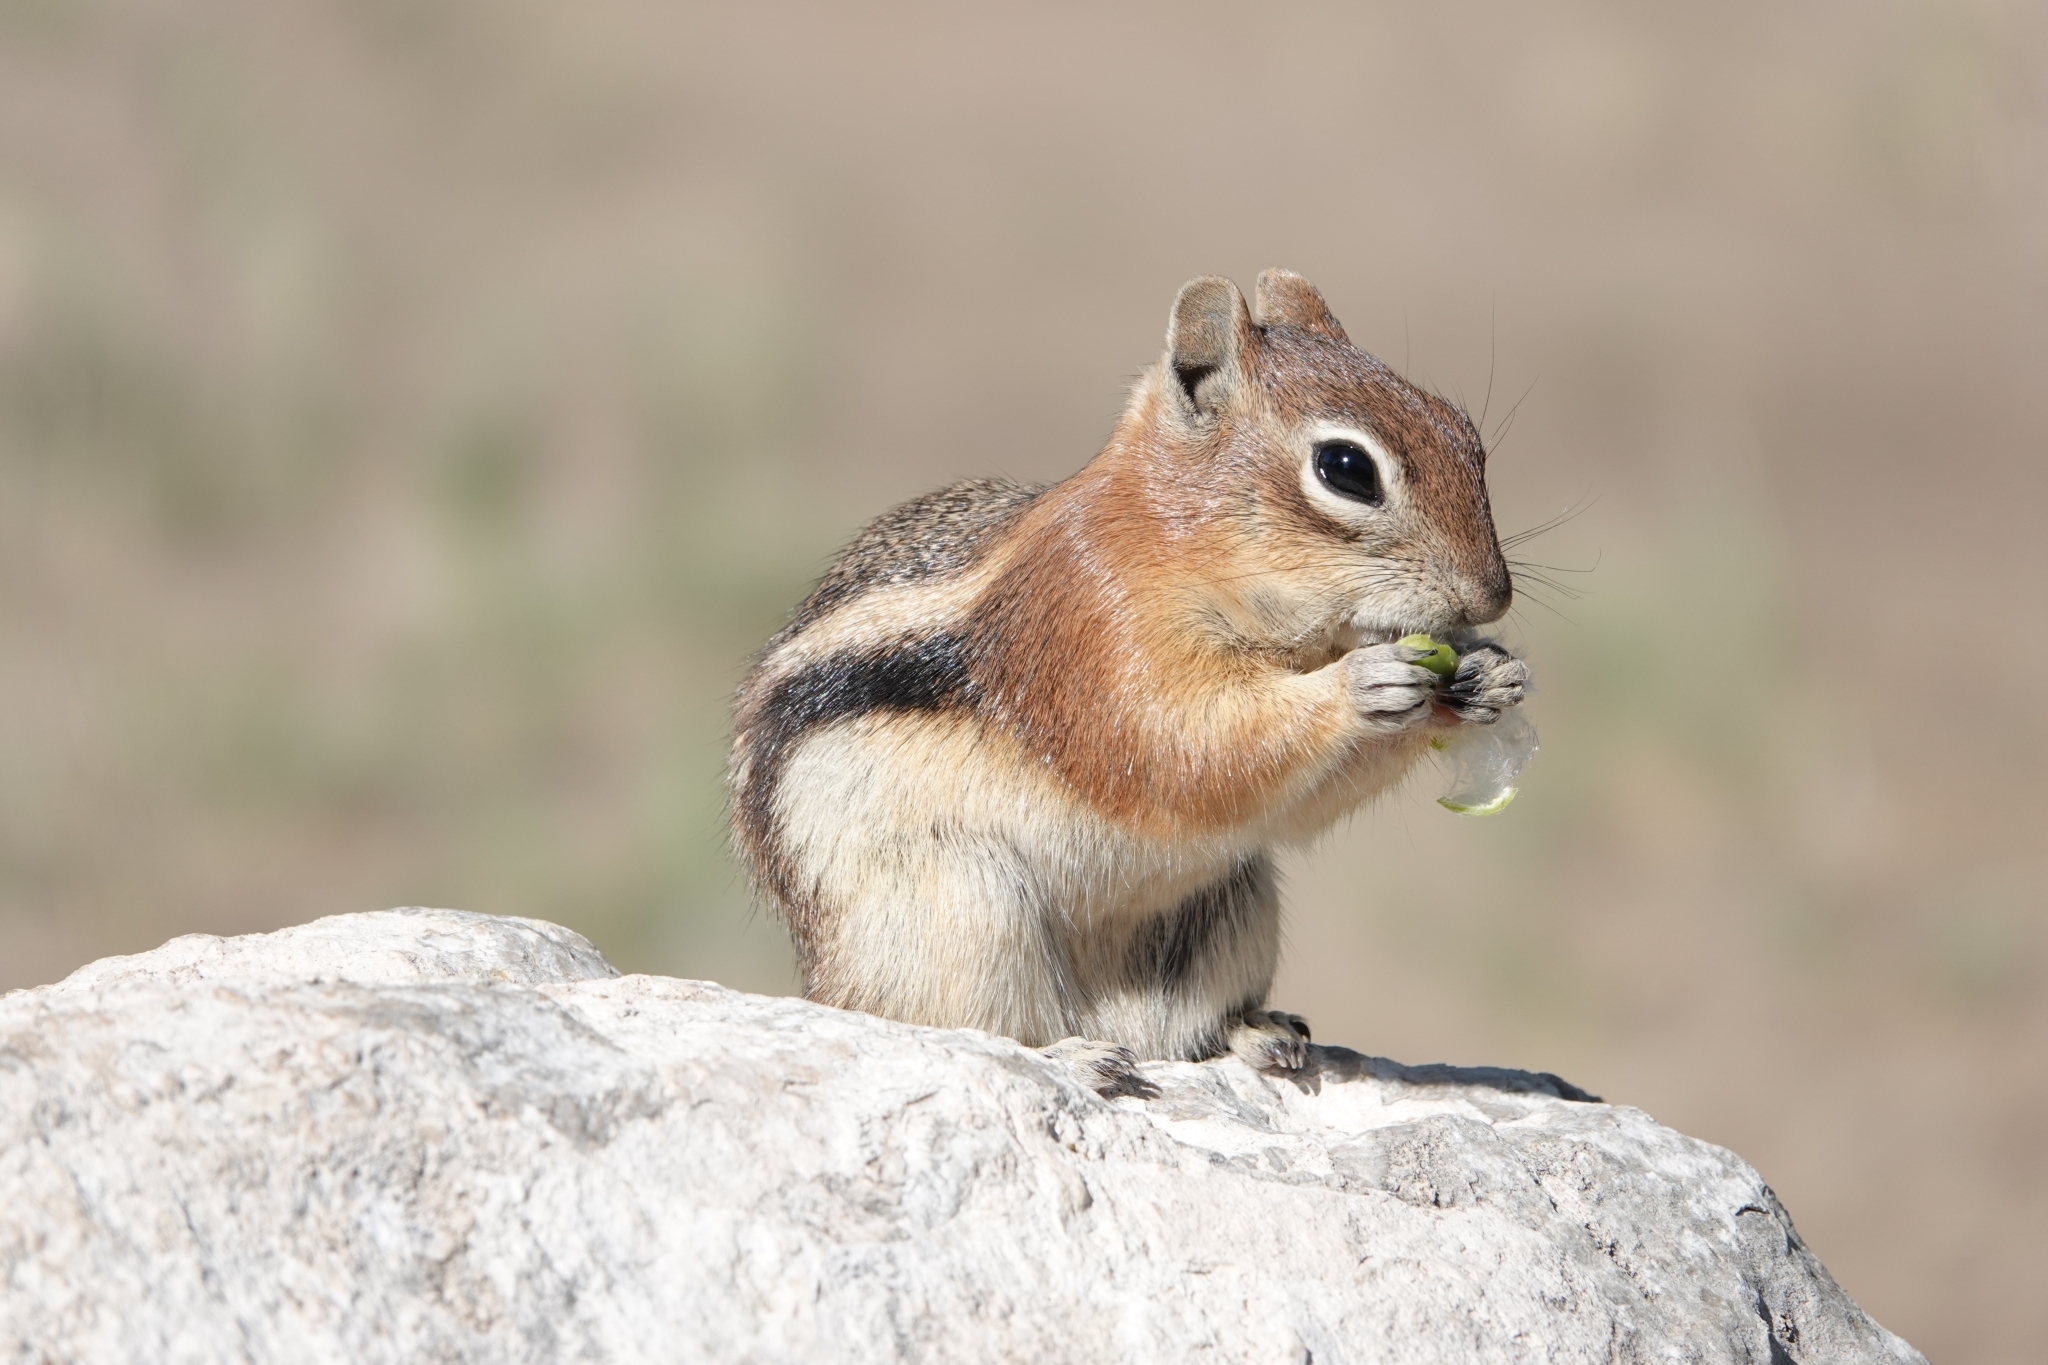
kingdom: Animalia
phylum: Chordata
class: Mammalia
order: Rodentia
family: Sciuridae
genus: Callospermophilus
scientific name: Callospermophilus lateralis
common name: Golden-mantled ground squirrel
